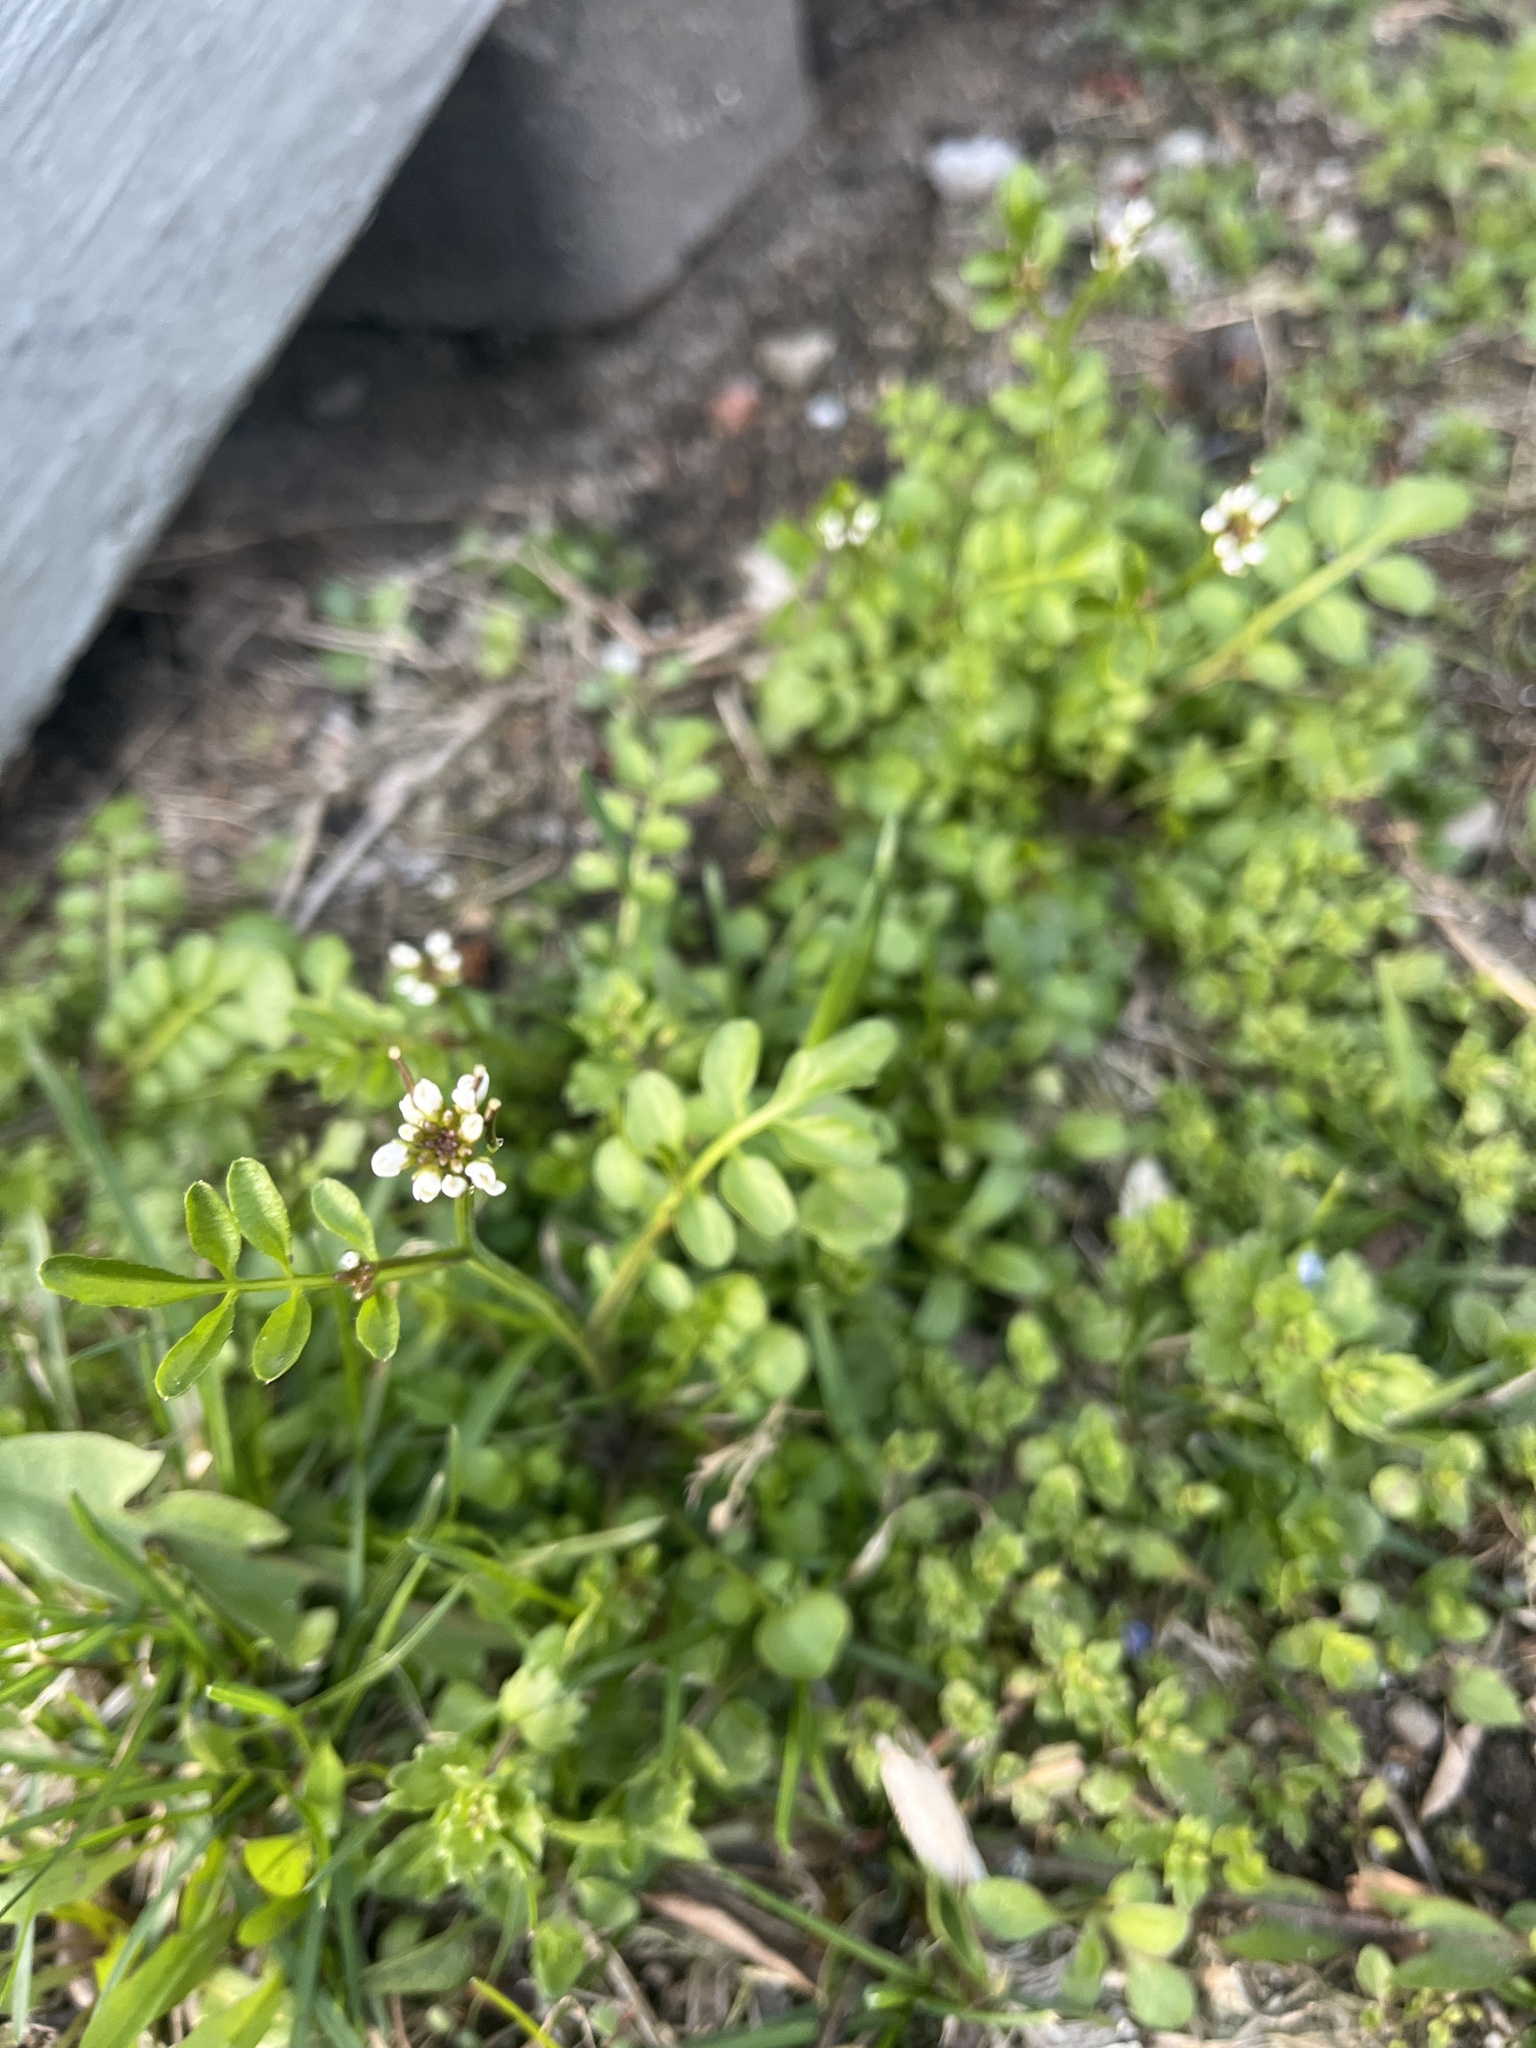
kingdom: Plantae
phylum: Tracheophyta
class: Magnoliopsida
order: Brassicales
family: Brassicaceae
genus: Cardamine
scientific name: Cardamine hirsuta
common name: Hairy bittercress
